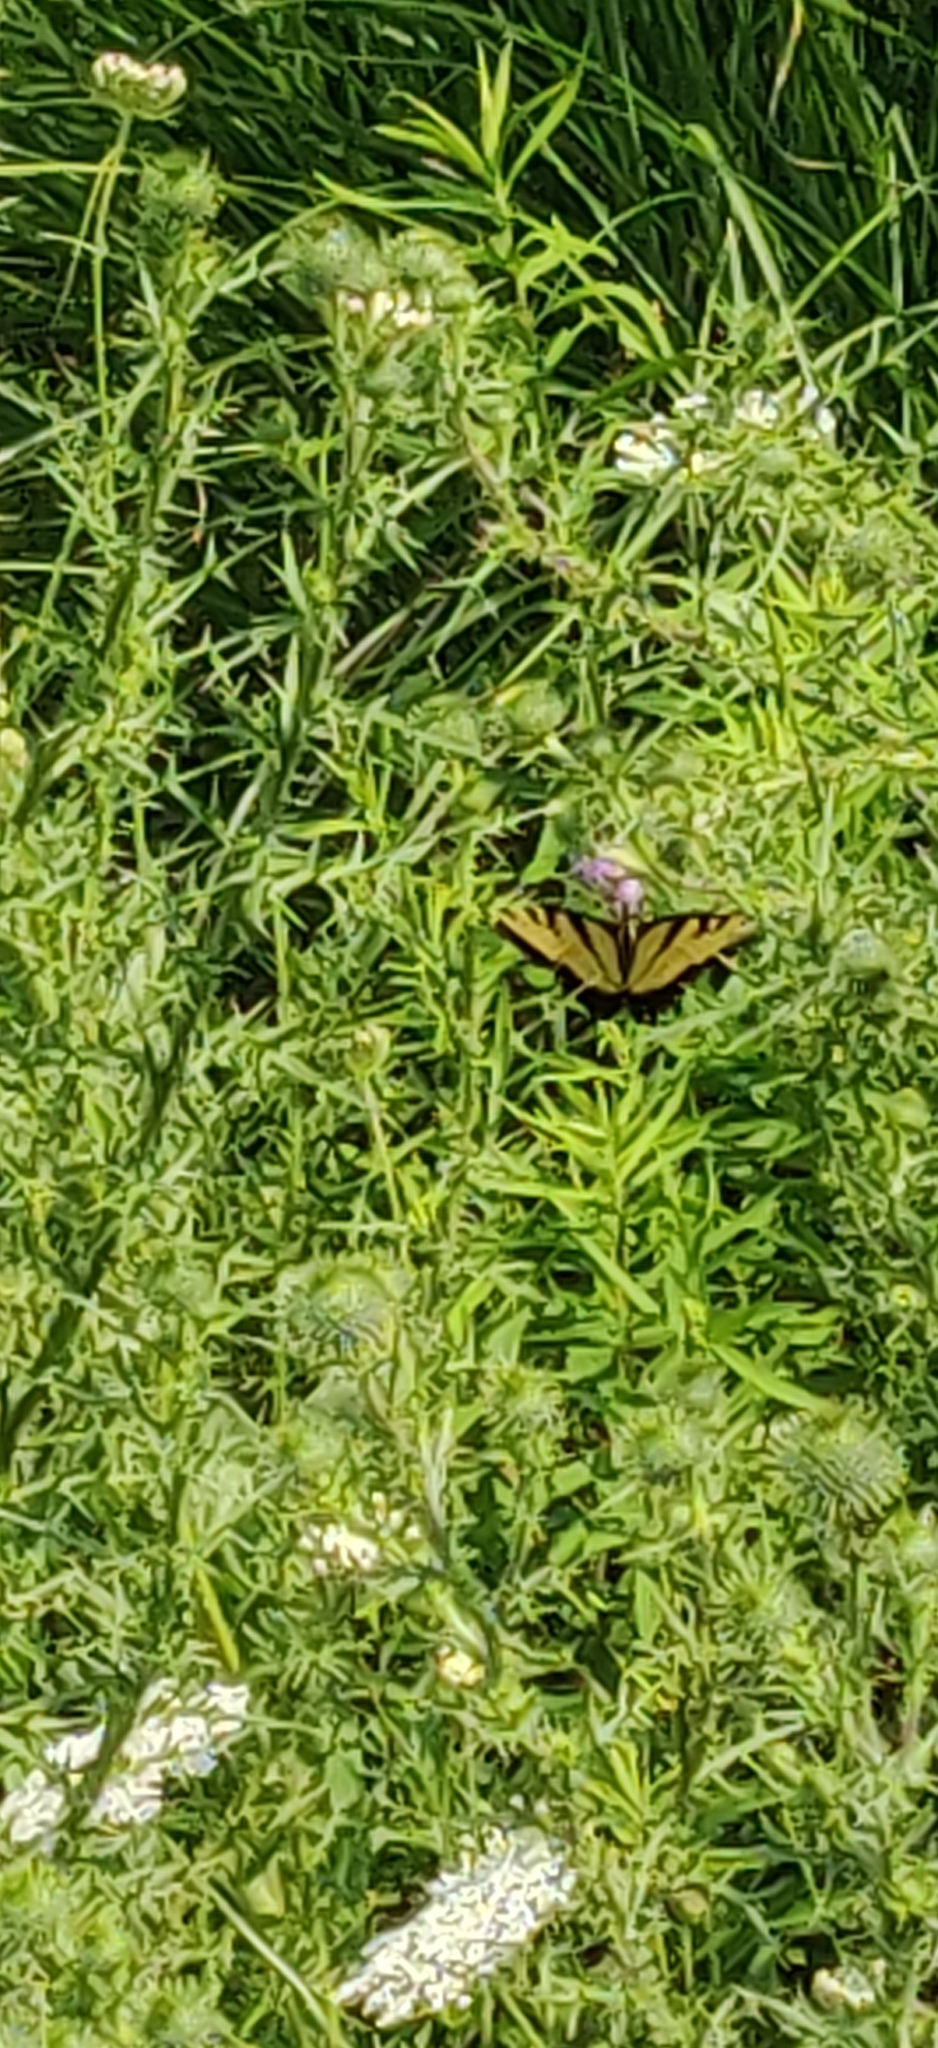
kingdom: Animalia
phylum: Arthropoda
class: Insecta
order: Lepidoptera
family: Papilionidae
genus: Papilio
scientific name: Papilio glaucus
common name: Tiger swallowtail
